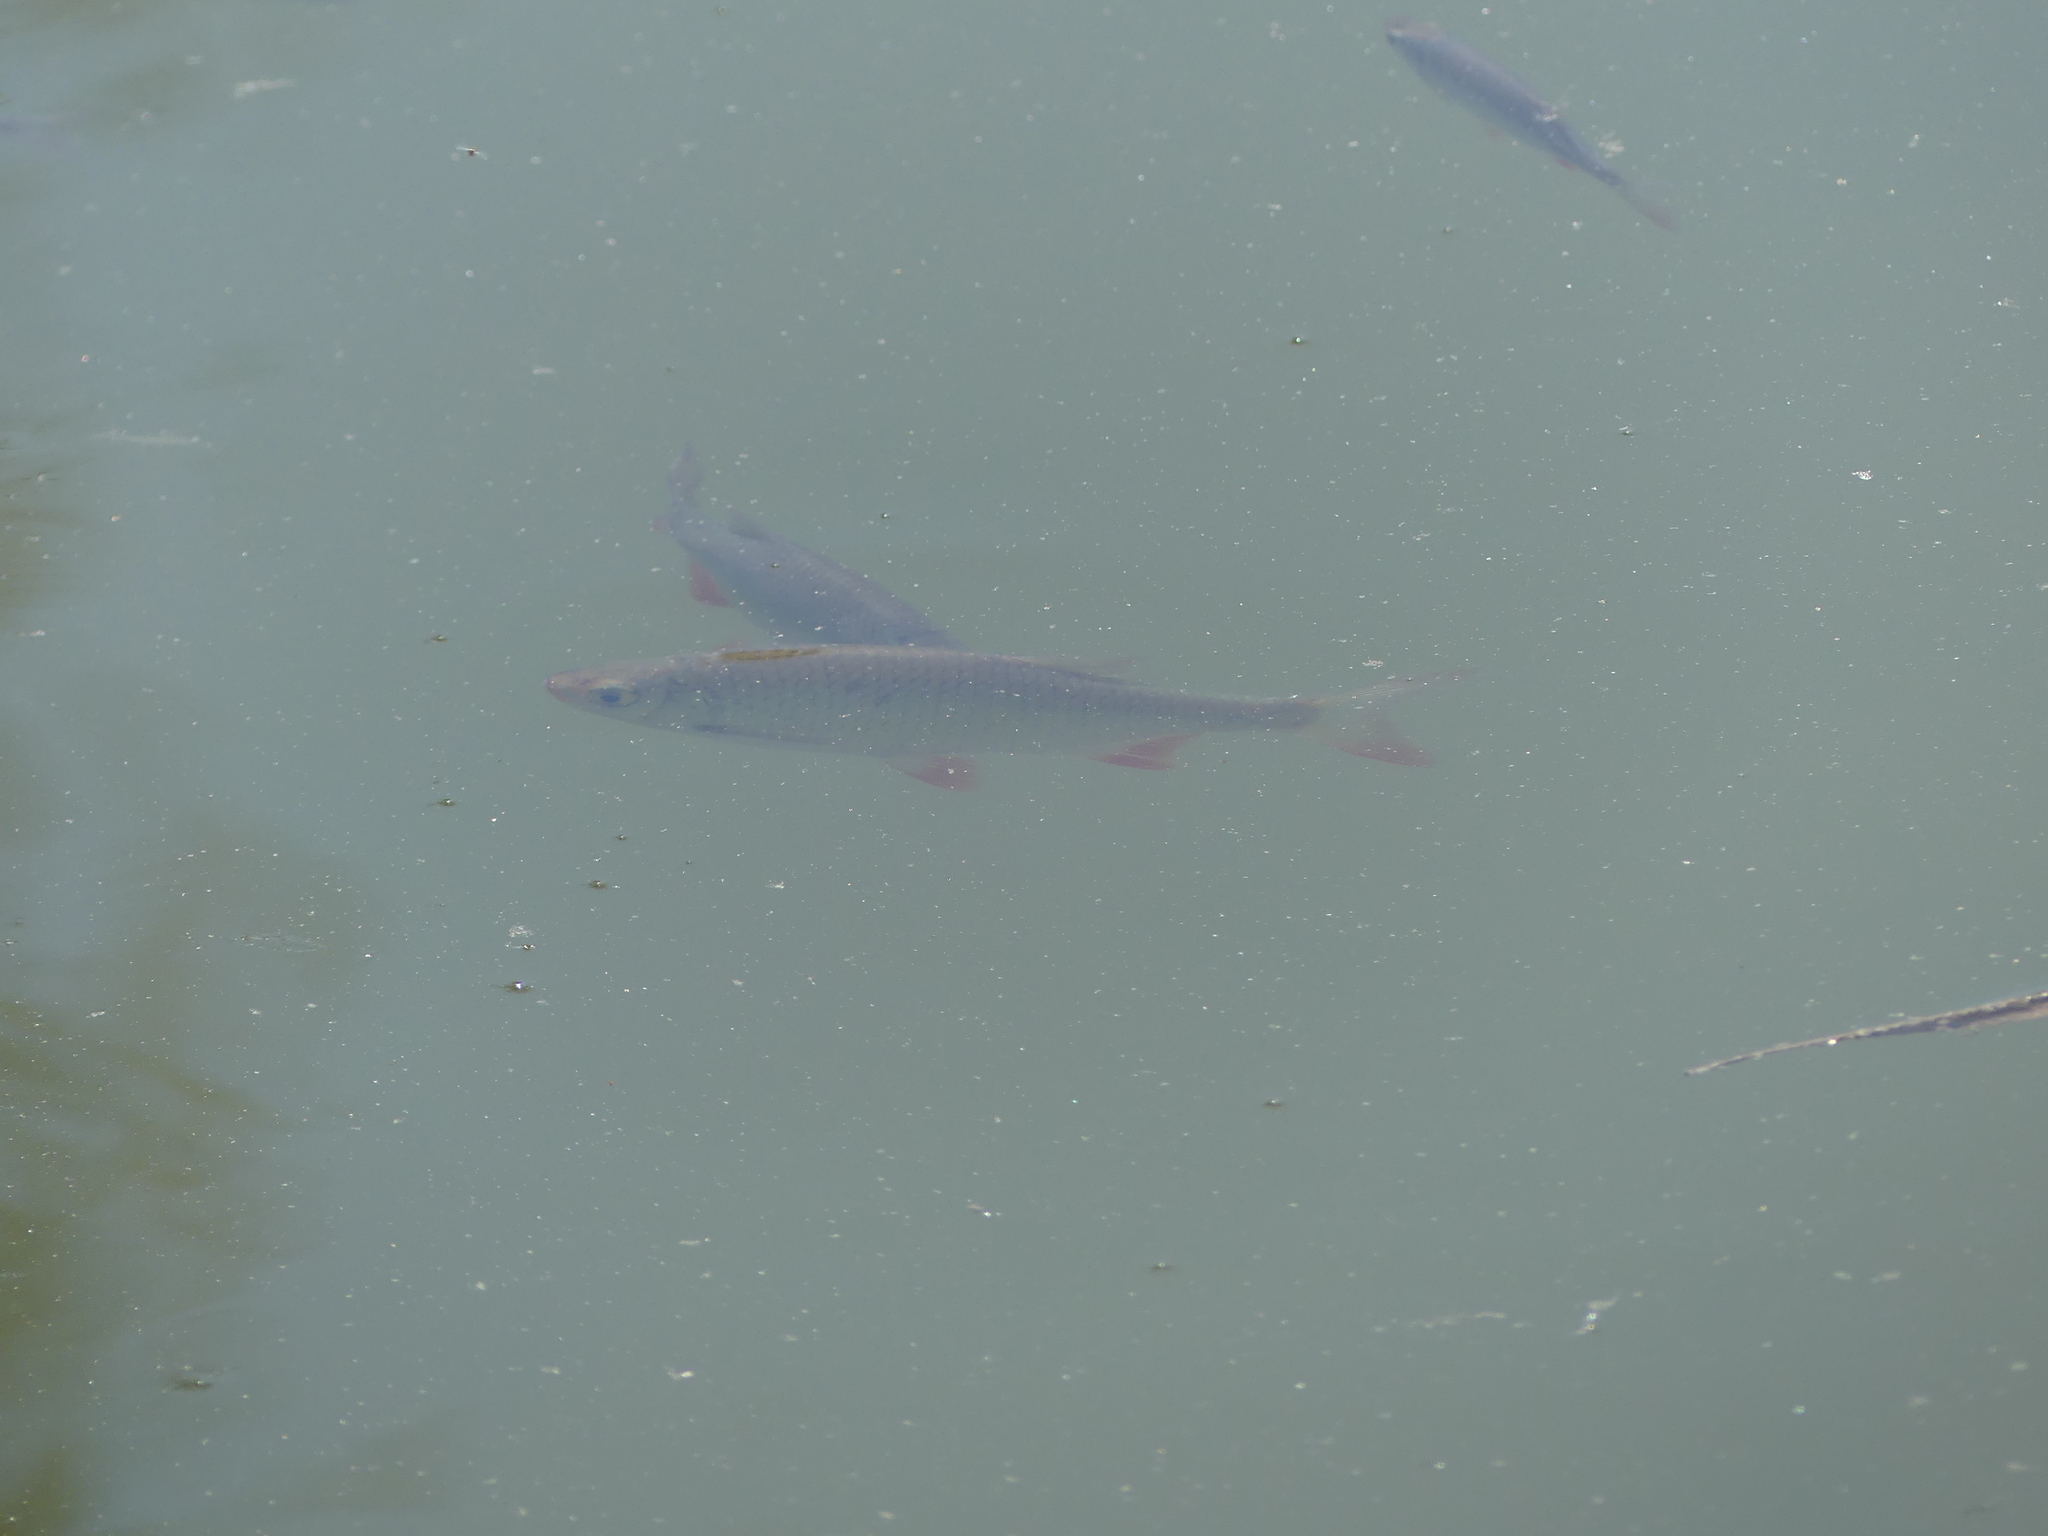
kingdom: Animalia
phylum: Chordata
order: Cypriniformes
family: Cyprinidae
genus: Scardinius
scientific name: Scardinius erythrophthalmus
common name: Rudd
